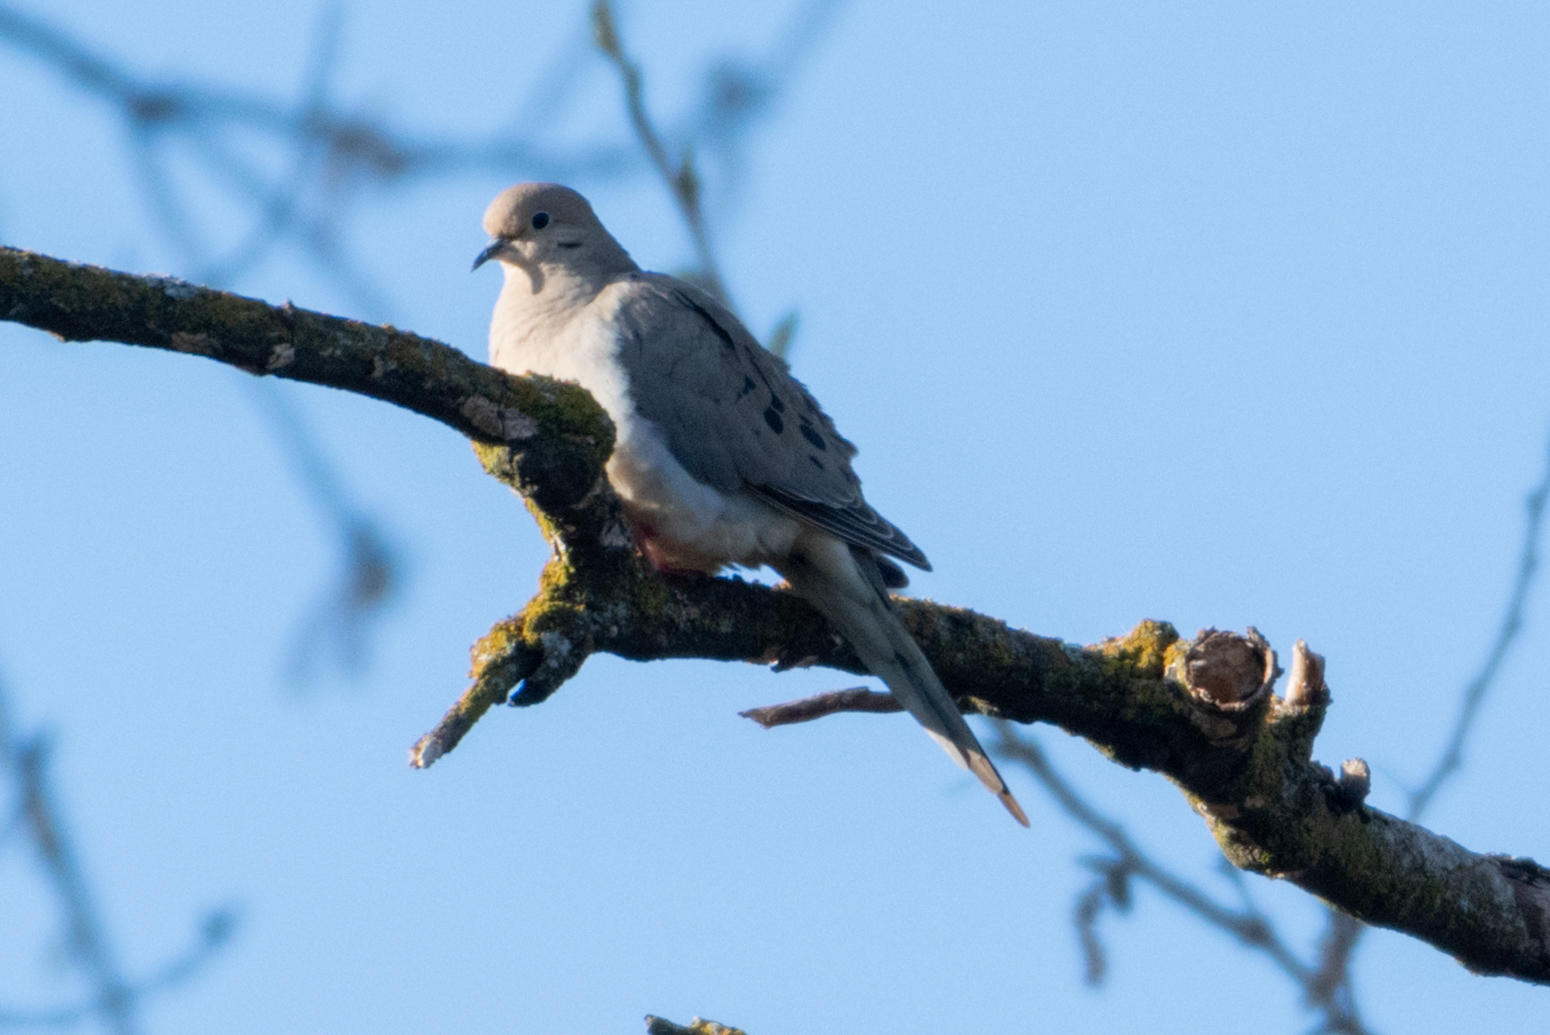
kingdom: Animalia
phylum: Chordata
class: Aves
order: Columbiformes
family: Columbidae
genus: Zenaida
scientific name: Zenaida macroura
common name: Mourning dove
